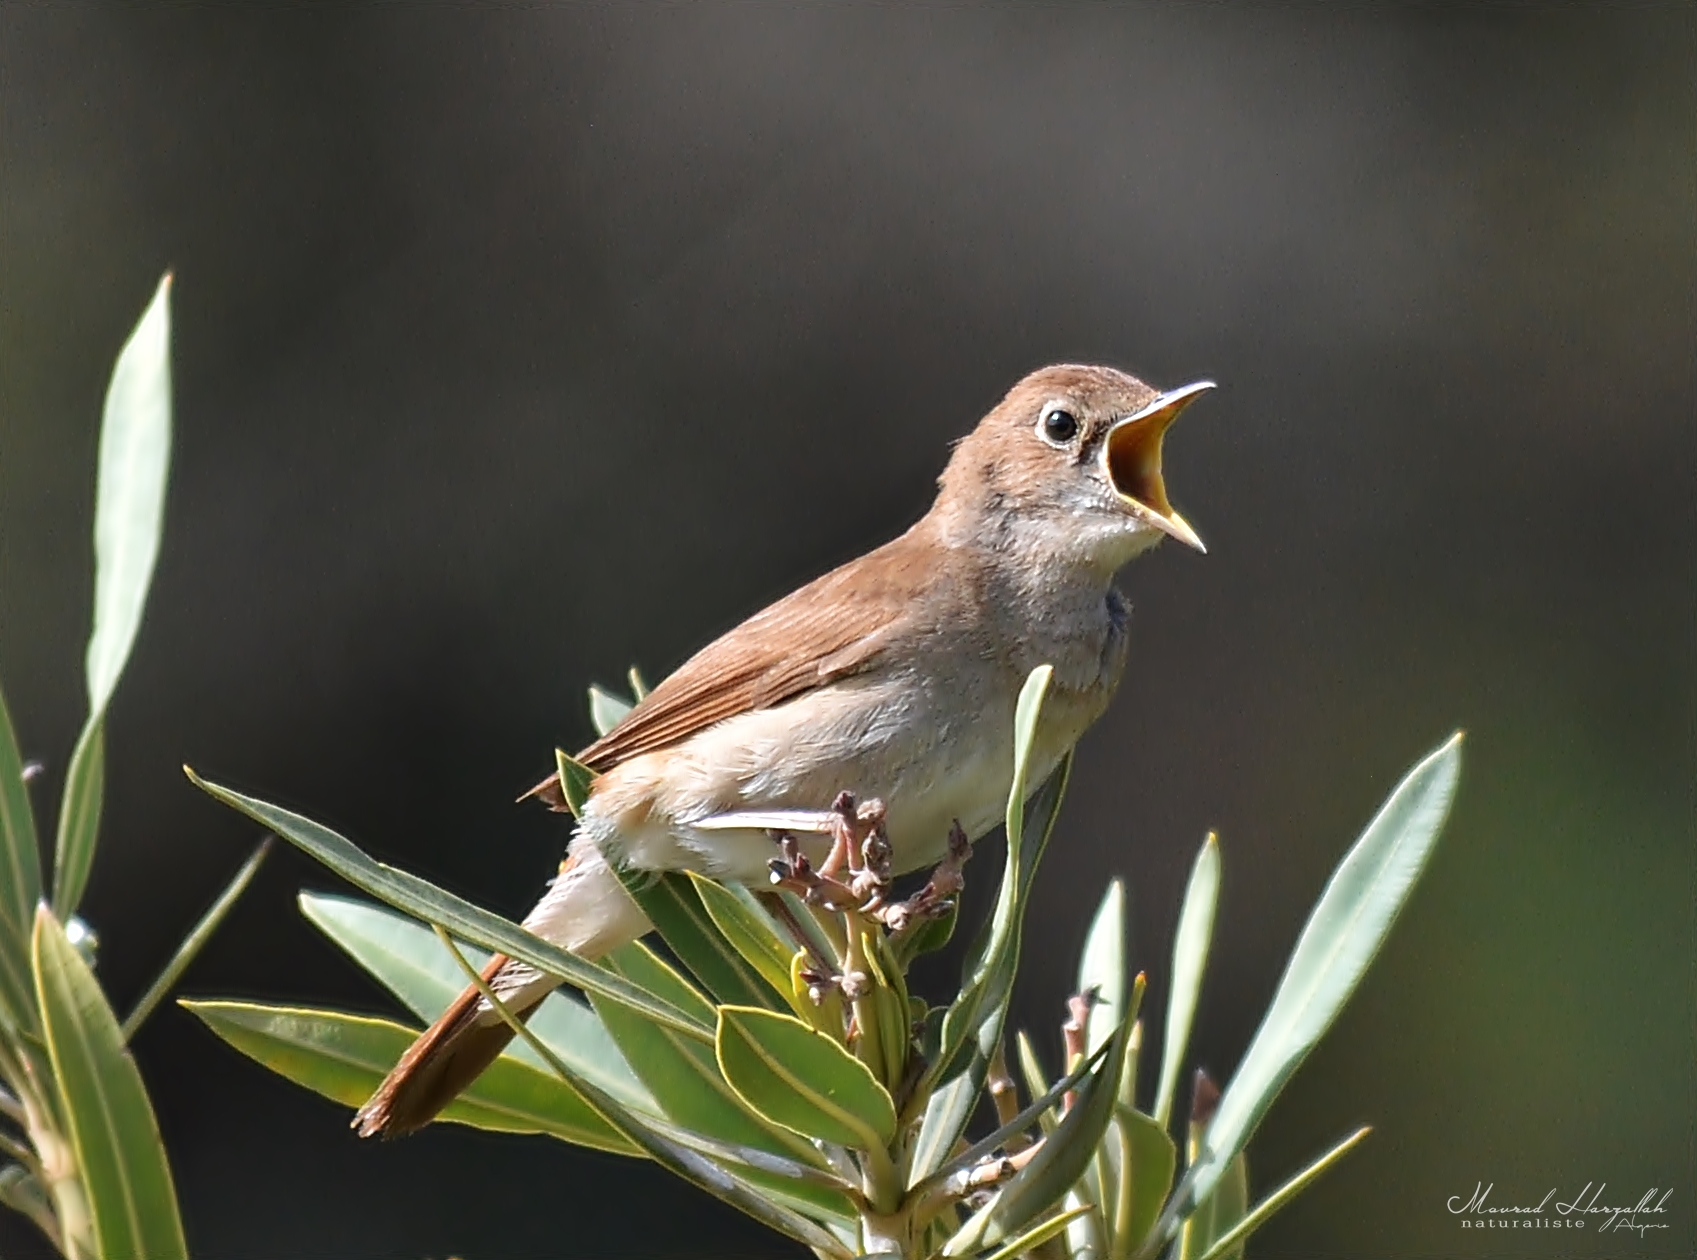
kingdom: Animalia
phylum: Chordata
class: Aves
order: Passeriformes
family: Muscicapidae
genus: Luscinia
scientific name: Luscinia megarhynchos
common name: Common nightingale
